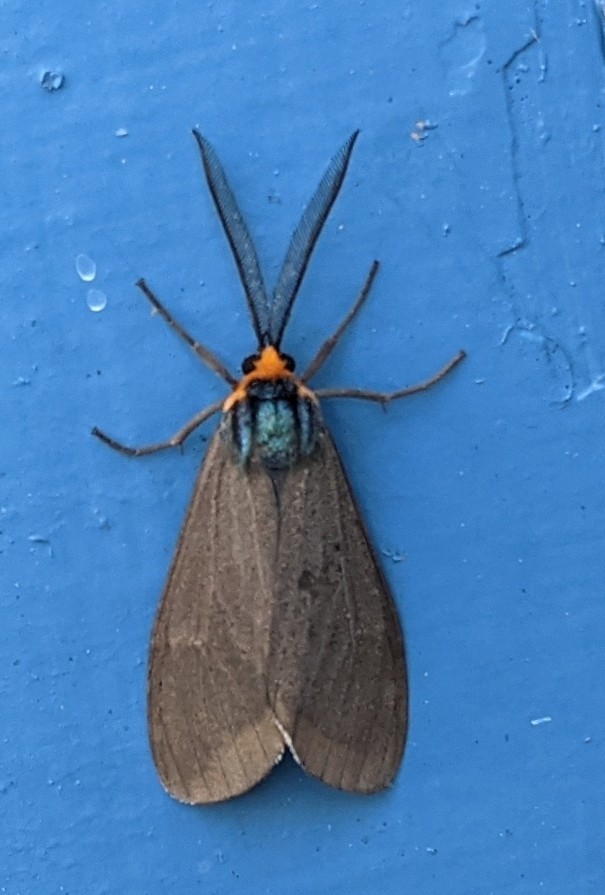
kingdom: Animalia
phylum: Arthropoda
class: Insecta
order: Lepidoptera
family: Erebidae
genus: Ctenucha
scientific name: Ctenucha virginica
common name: Virginia ctenucha moth
